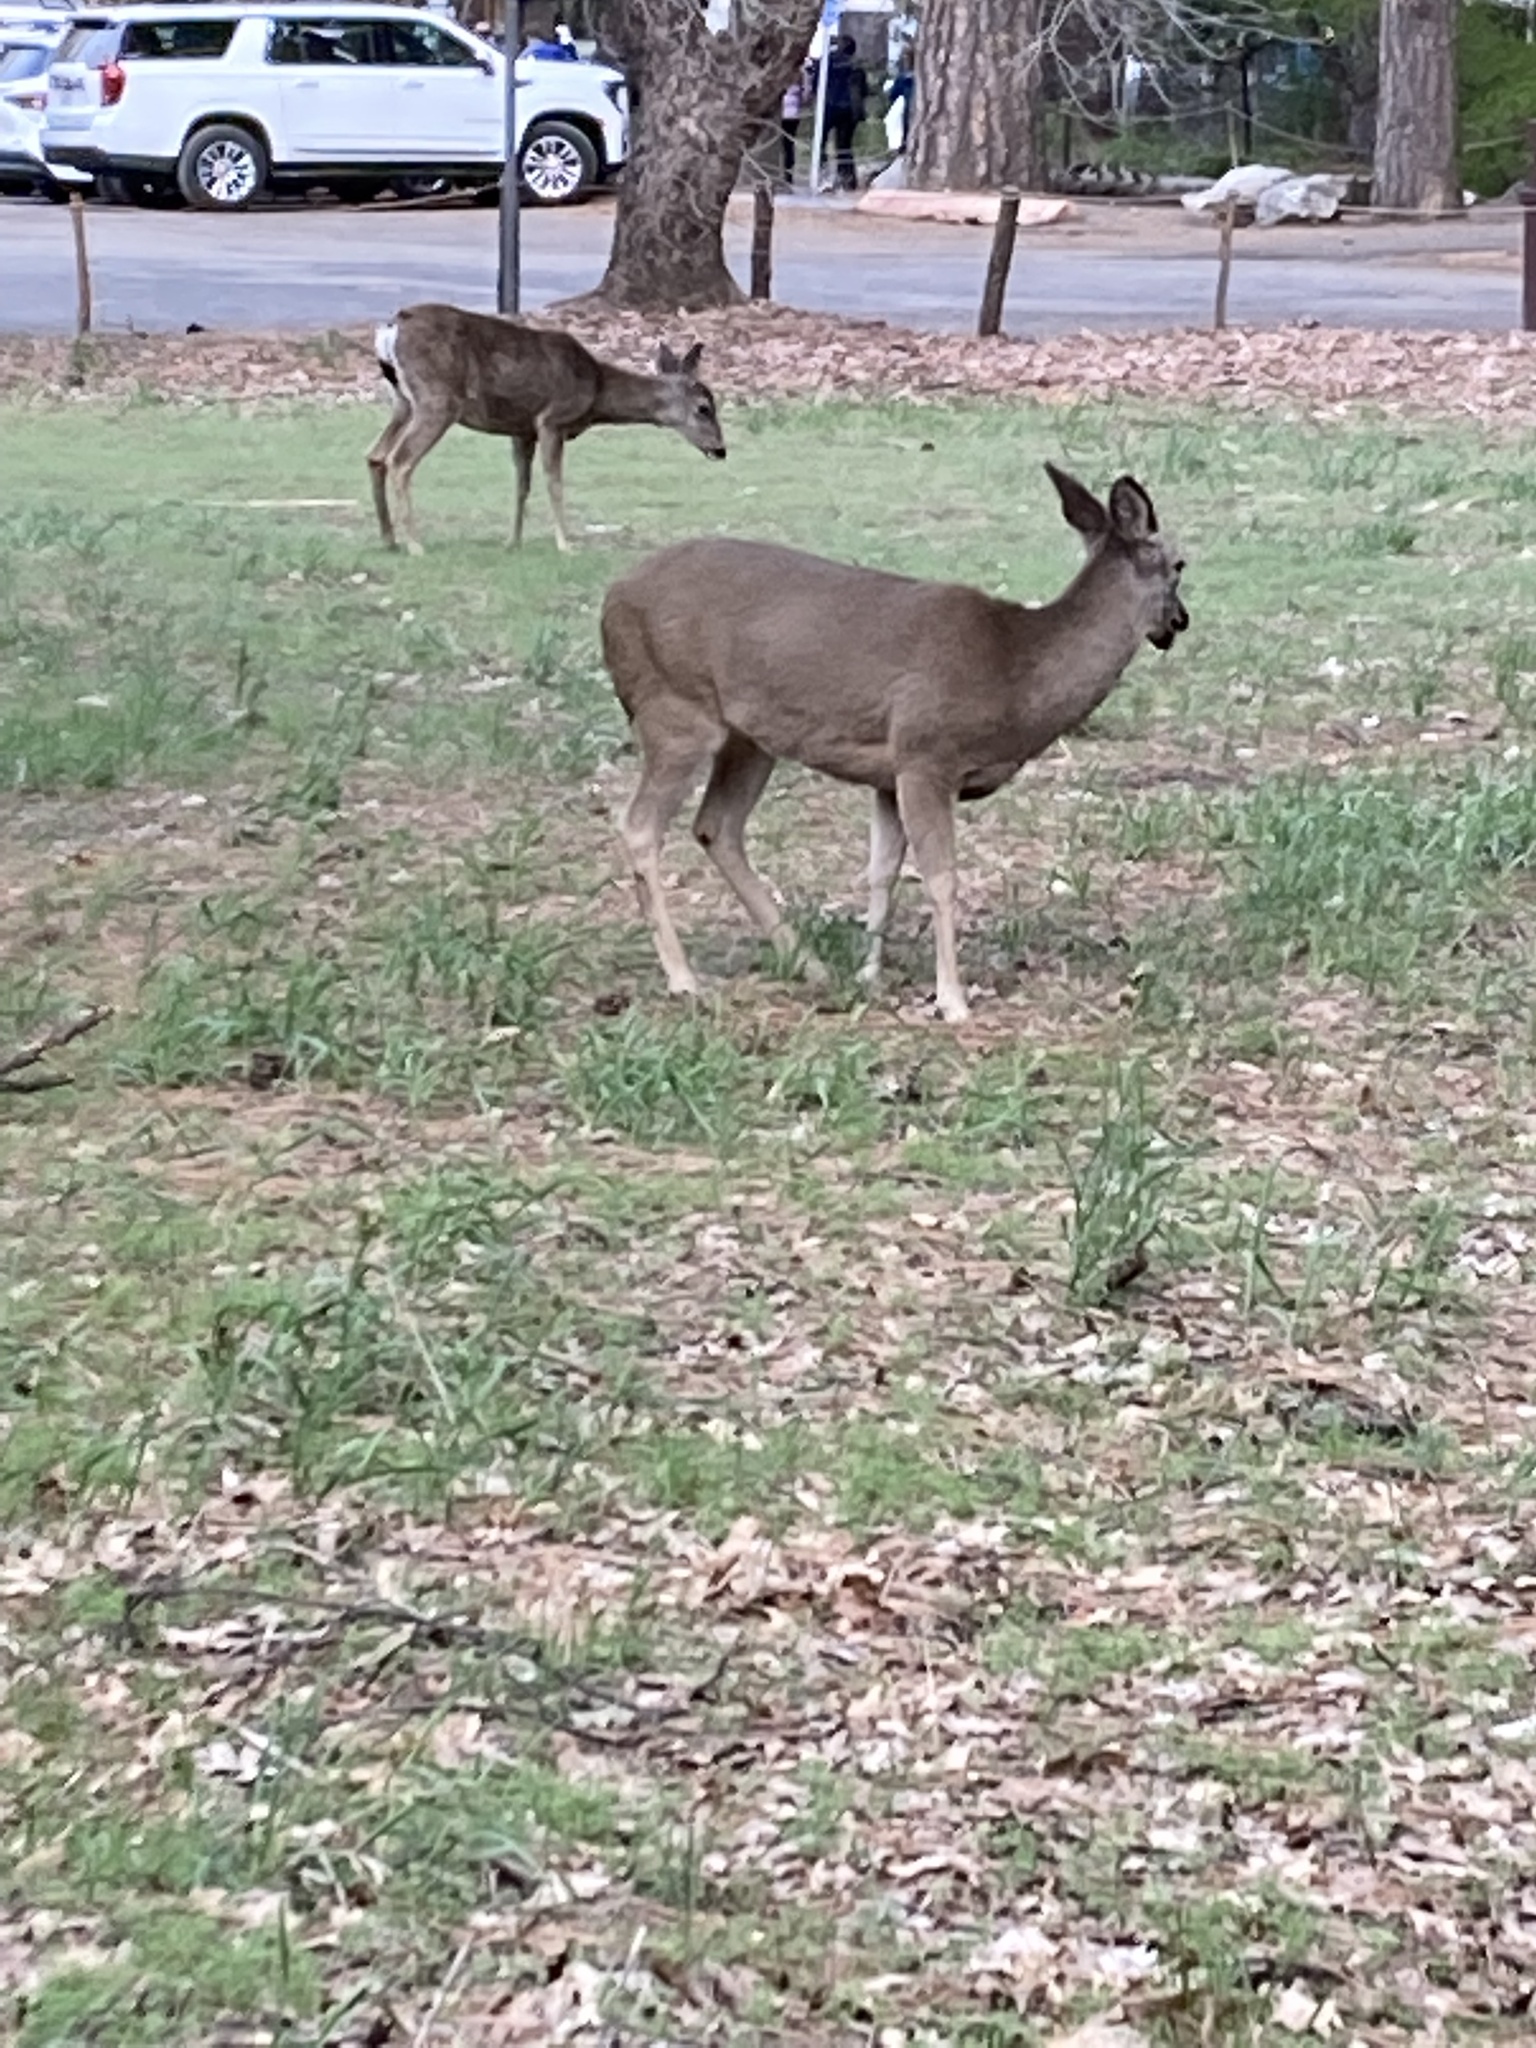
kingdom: Animalia
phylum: Chordata
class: Mammalia
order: Artiodactyla
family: Cervidae
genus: Odocoileus
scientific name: Odocoileus hemionus
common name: Mule deer
